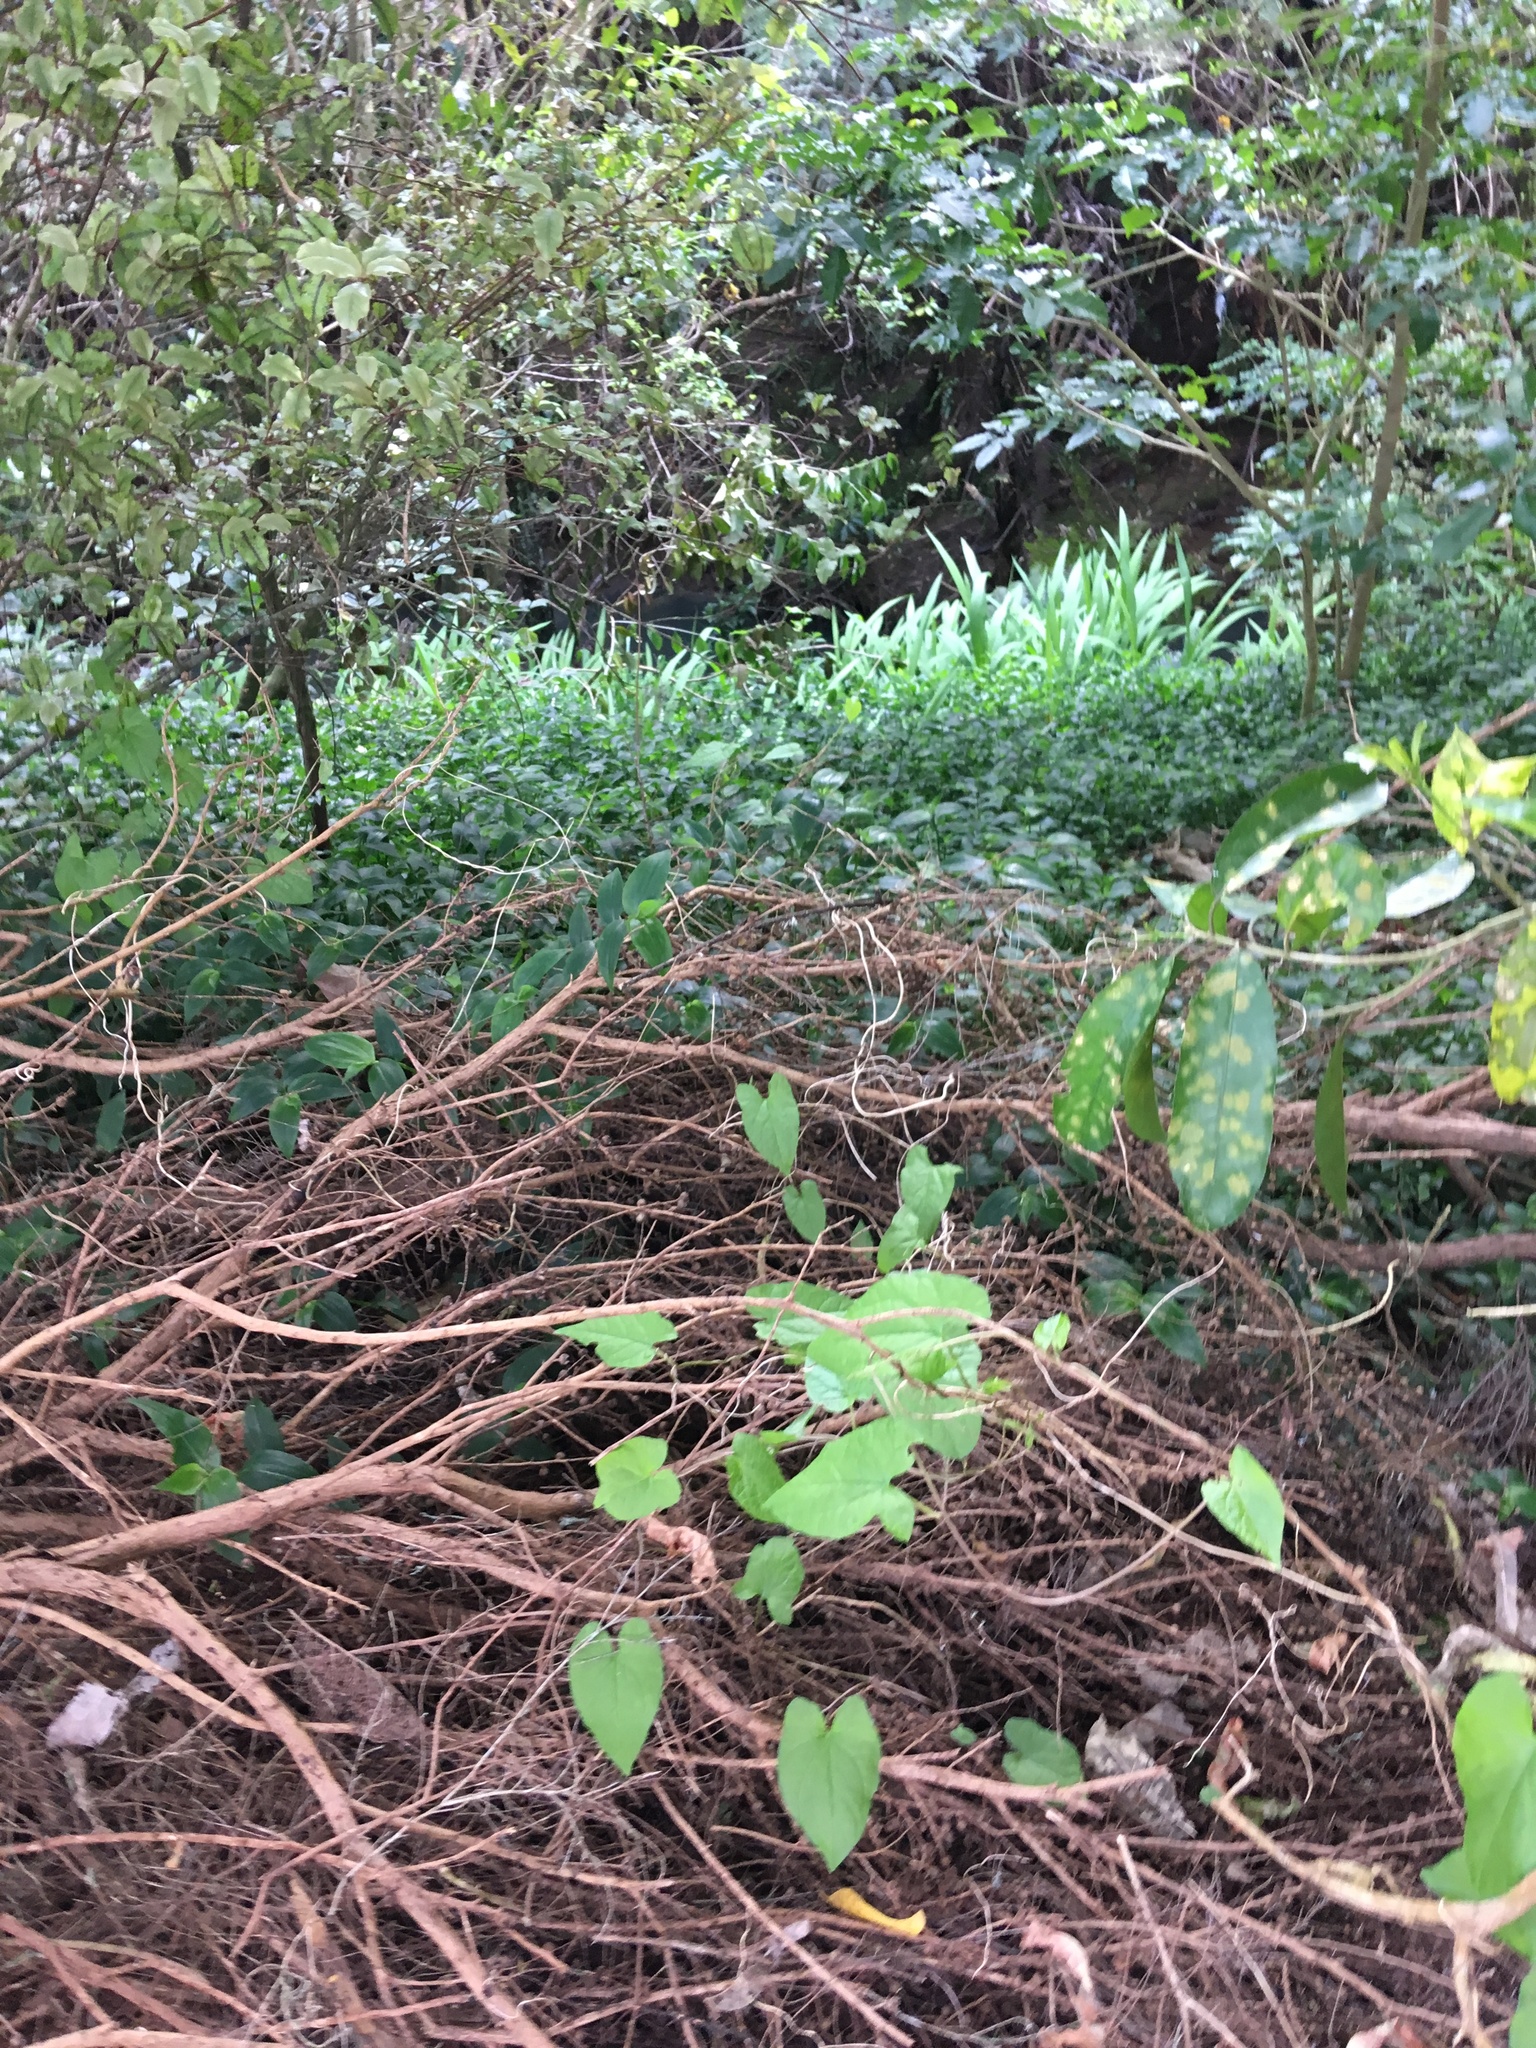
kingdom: Plantae
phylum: Tracheophyta
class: Liliopsida
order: Commelinales
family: Commelinaceae
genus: Tradescantia
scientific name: Tradescantia fluminensis
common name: Wandering-jew
